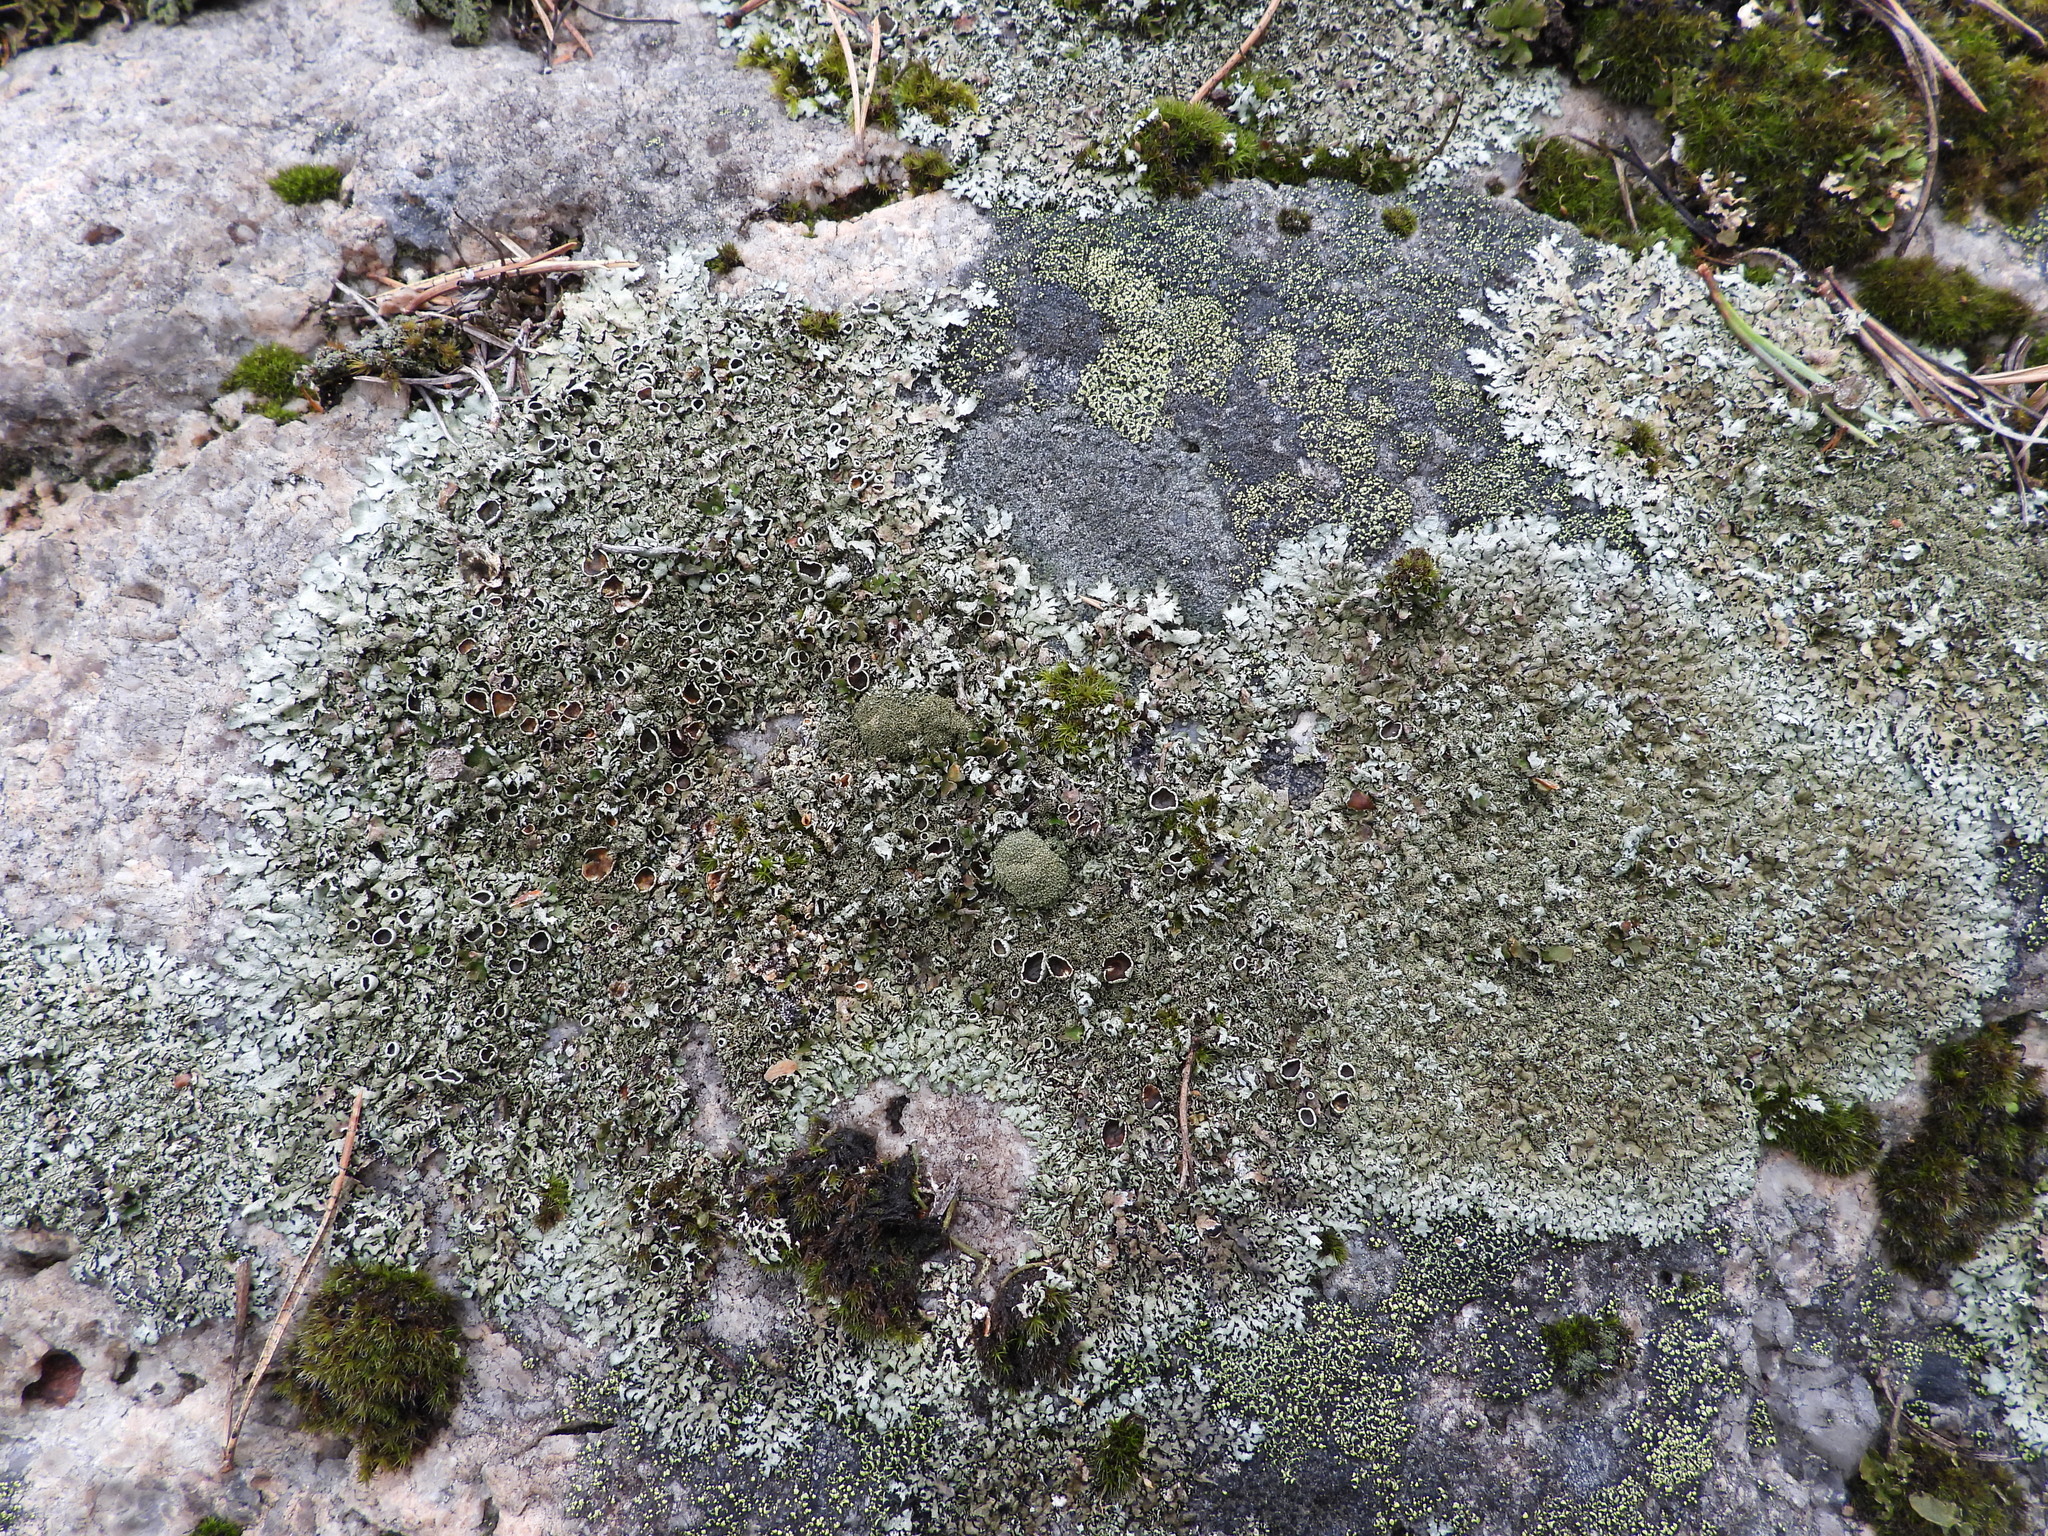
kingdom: Fungi
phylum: Ascomycota
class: Lecanoromycetes
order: Lecanorales
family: Parmeliaceae
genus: Xanthoparmelia
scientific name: Xanthoparmelia conspersa
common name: Peppered rock shield
